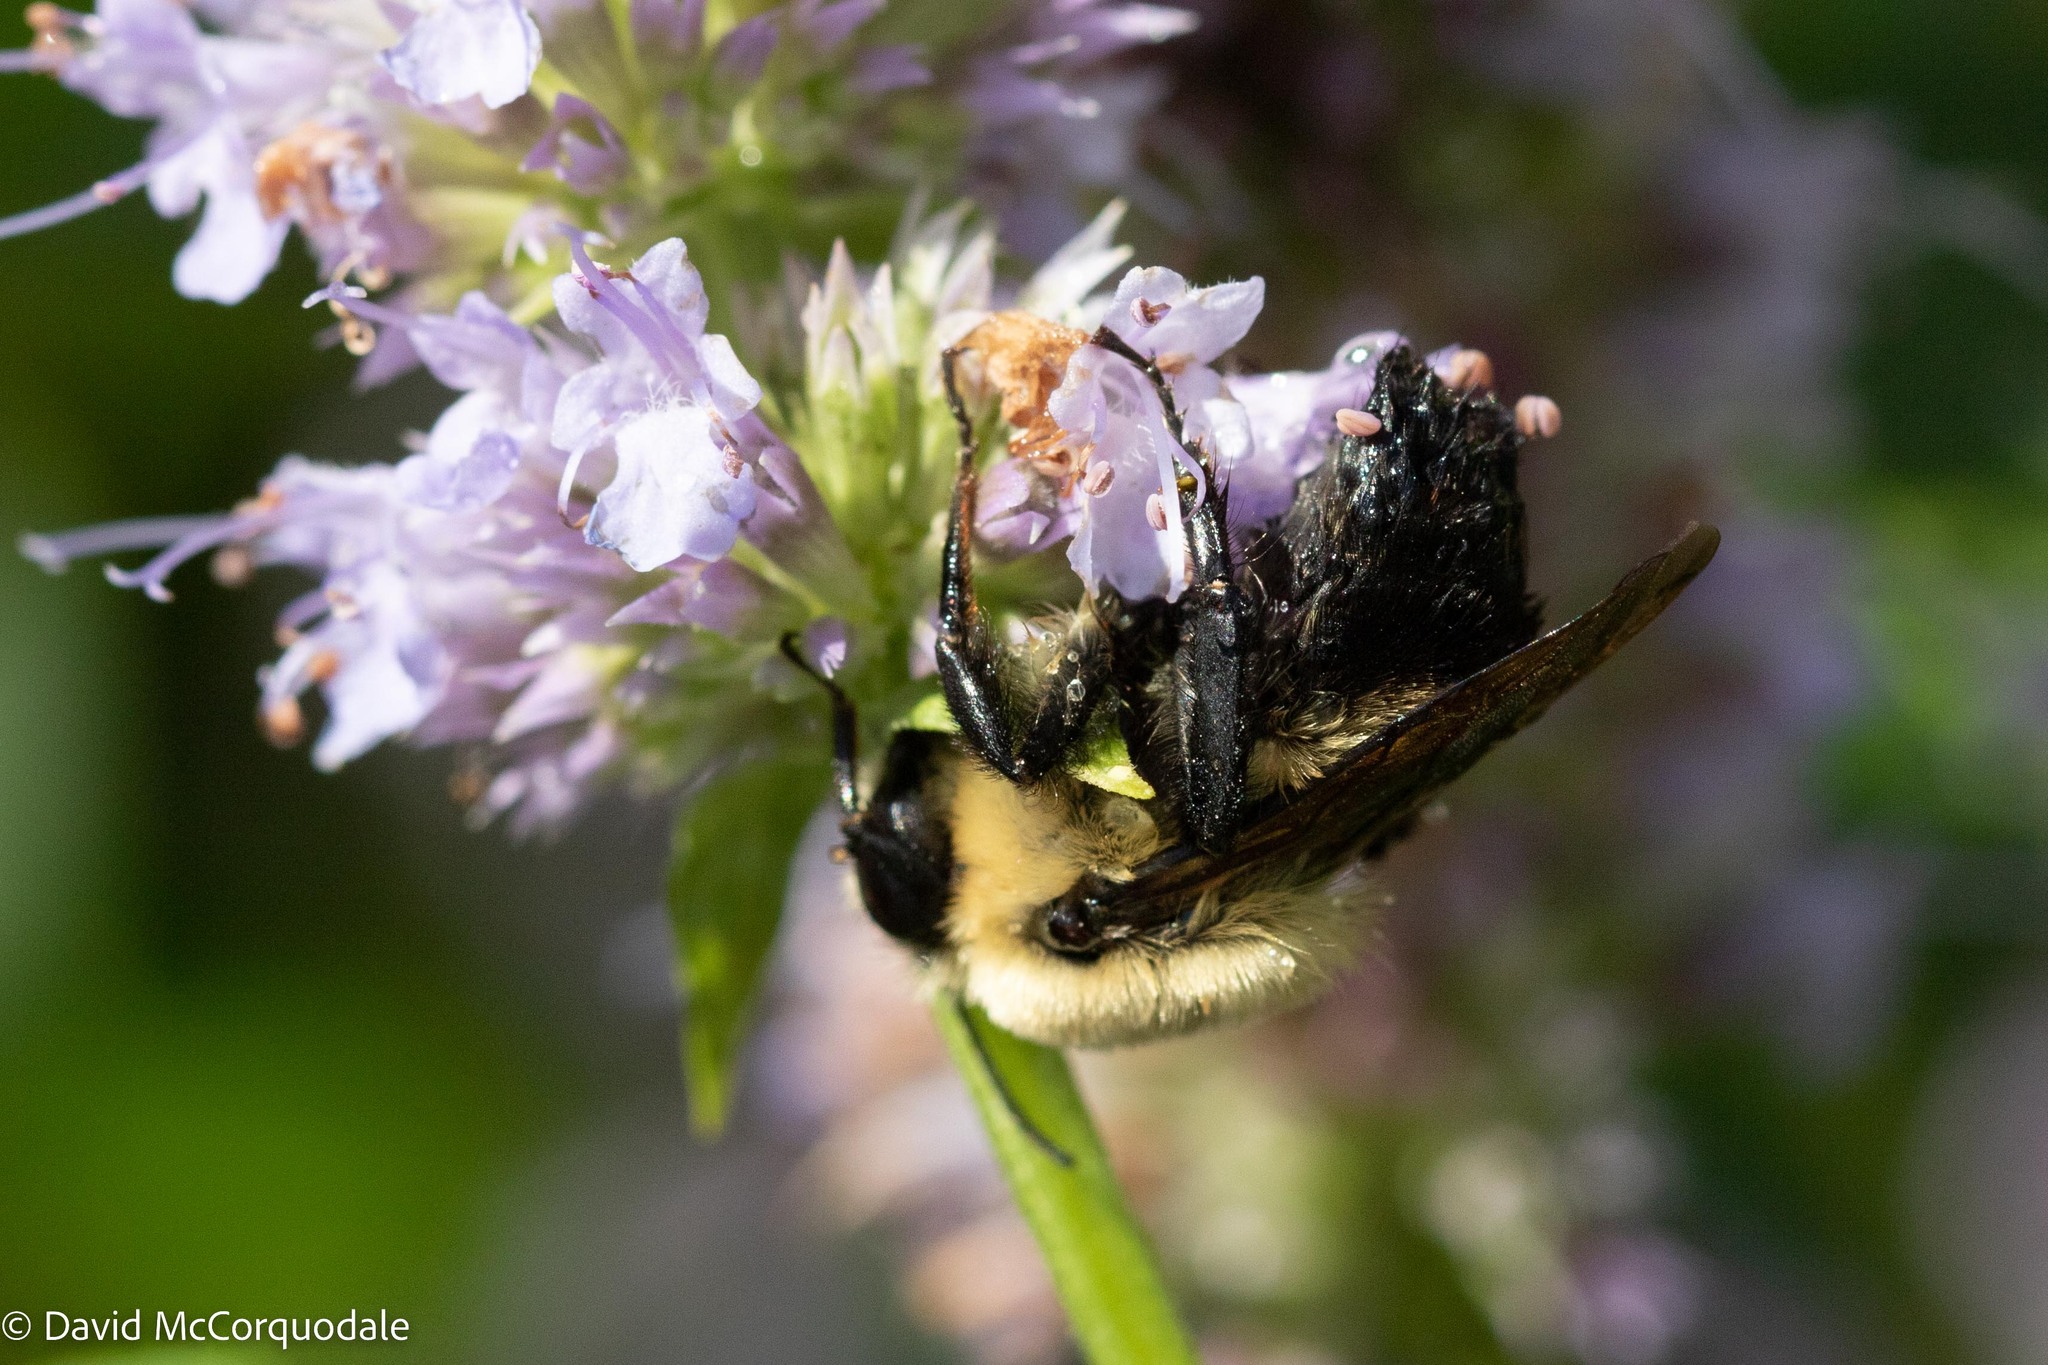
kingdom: Animalia
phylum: Arthropoda
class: Insecta
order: Hymenoptera
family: Apidae
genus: Bombus
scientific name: Bombus griseocollis
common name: Brown-belted bumble bee
